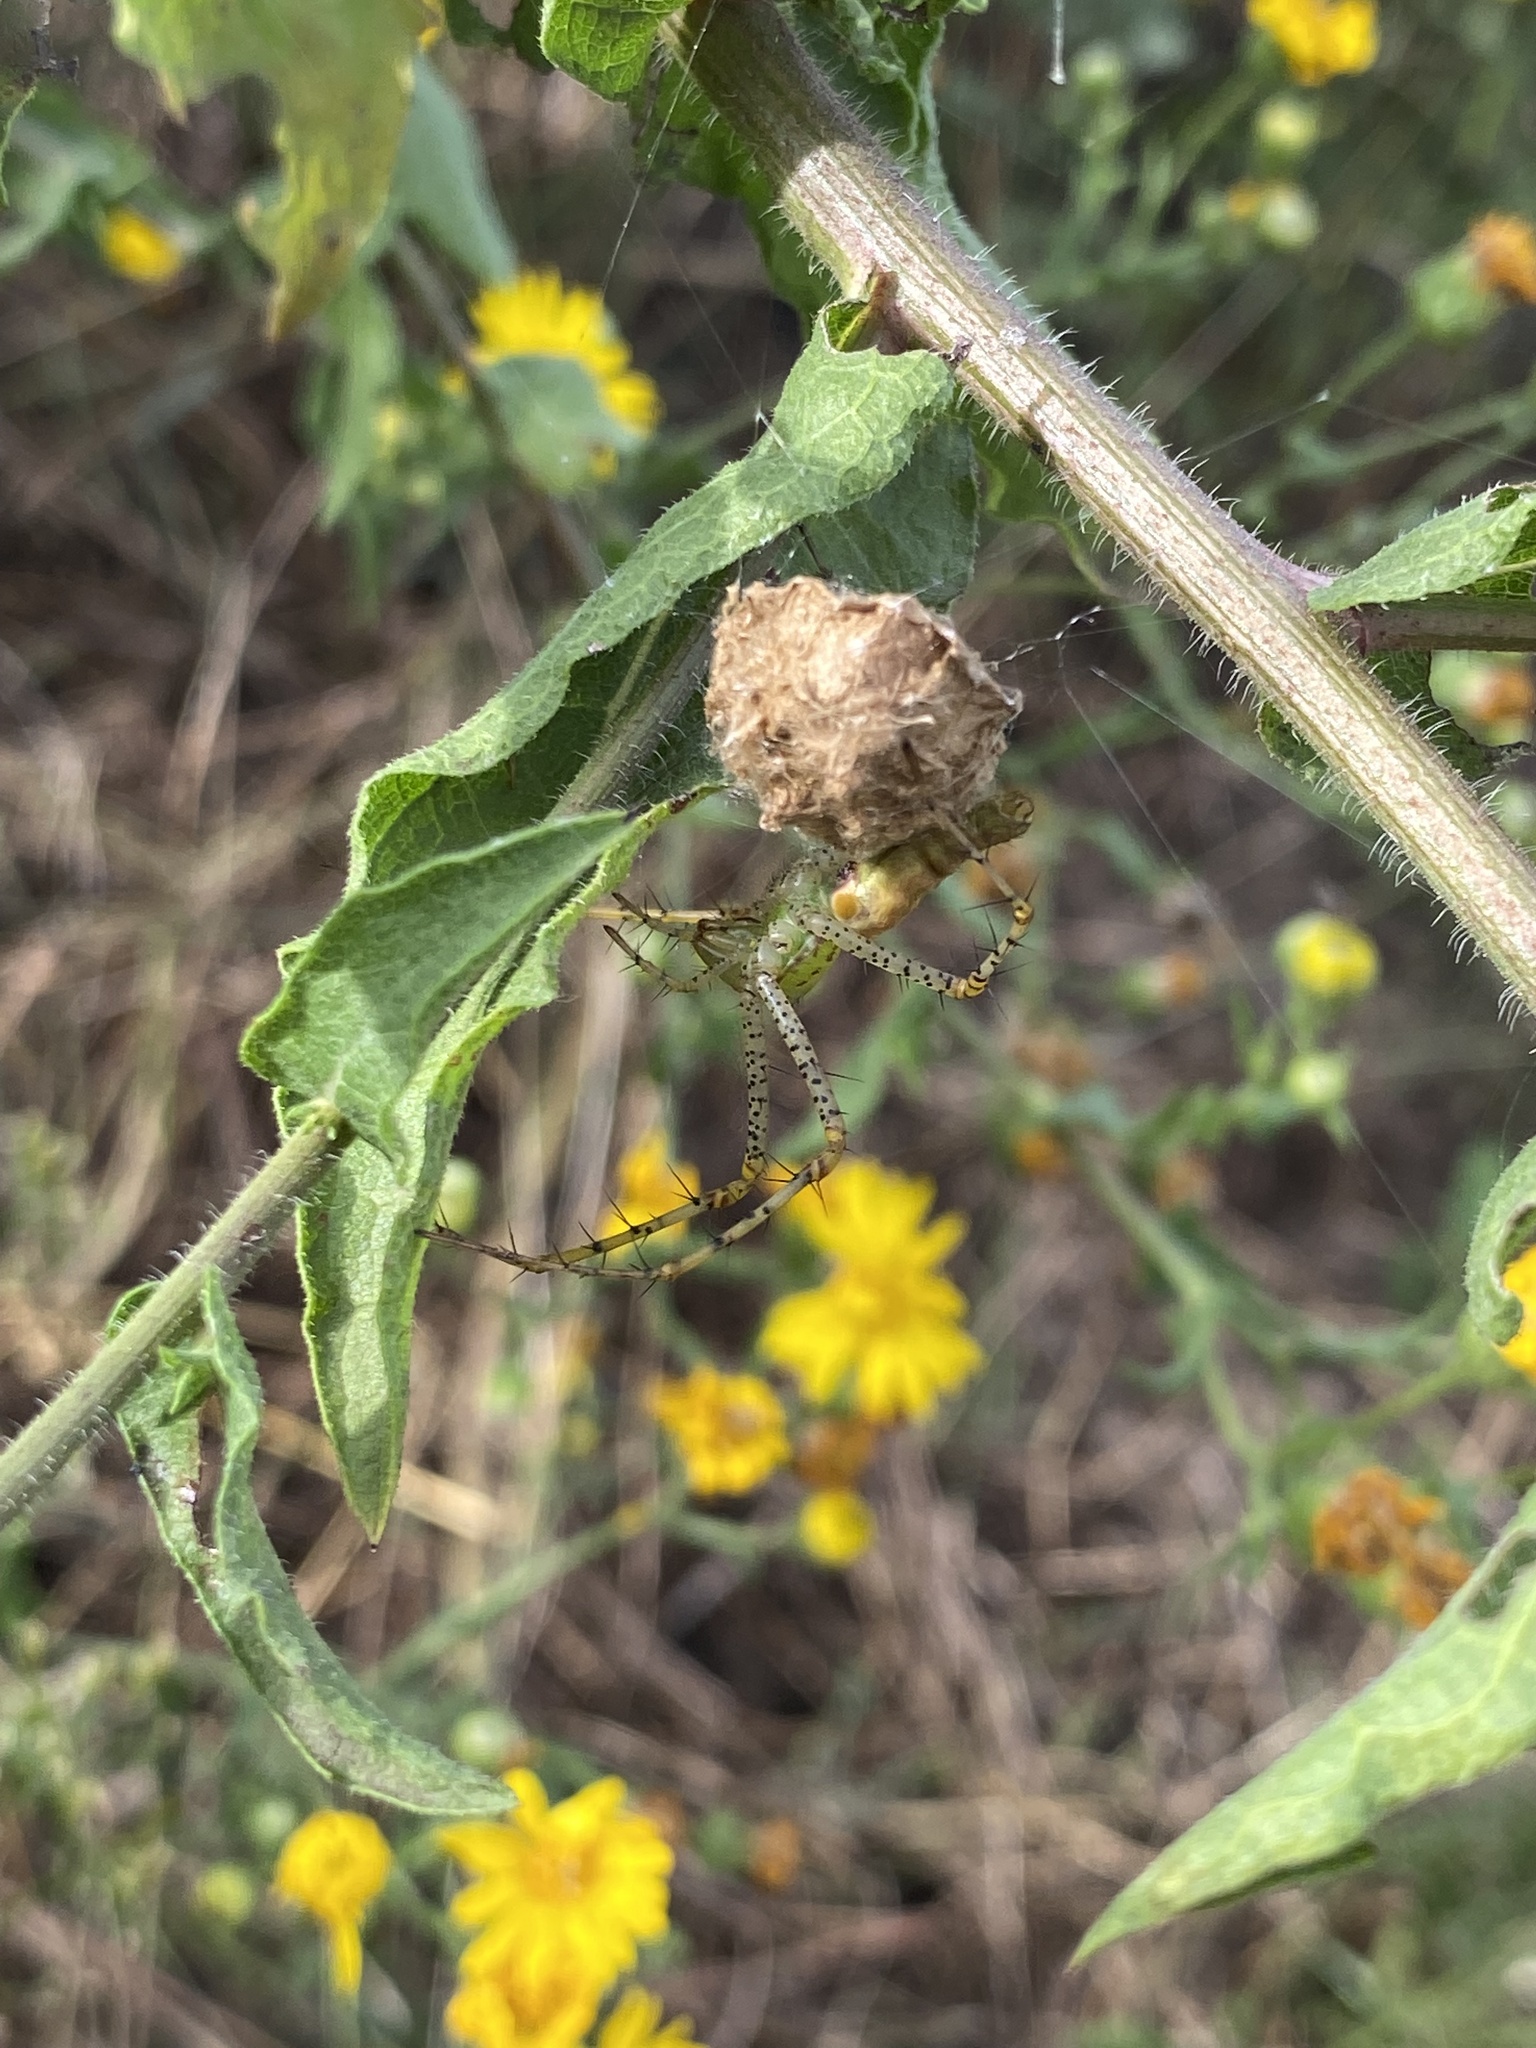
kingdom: Animalia
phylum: Arthropoda
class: Arachnida
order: Araneae
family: Oxyopidae
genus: Peucetia
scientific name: Peucetia viridans
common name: Lynx spiders
